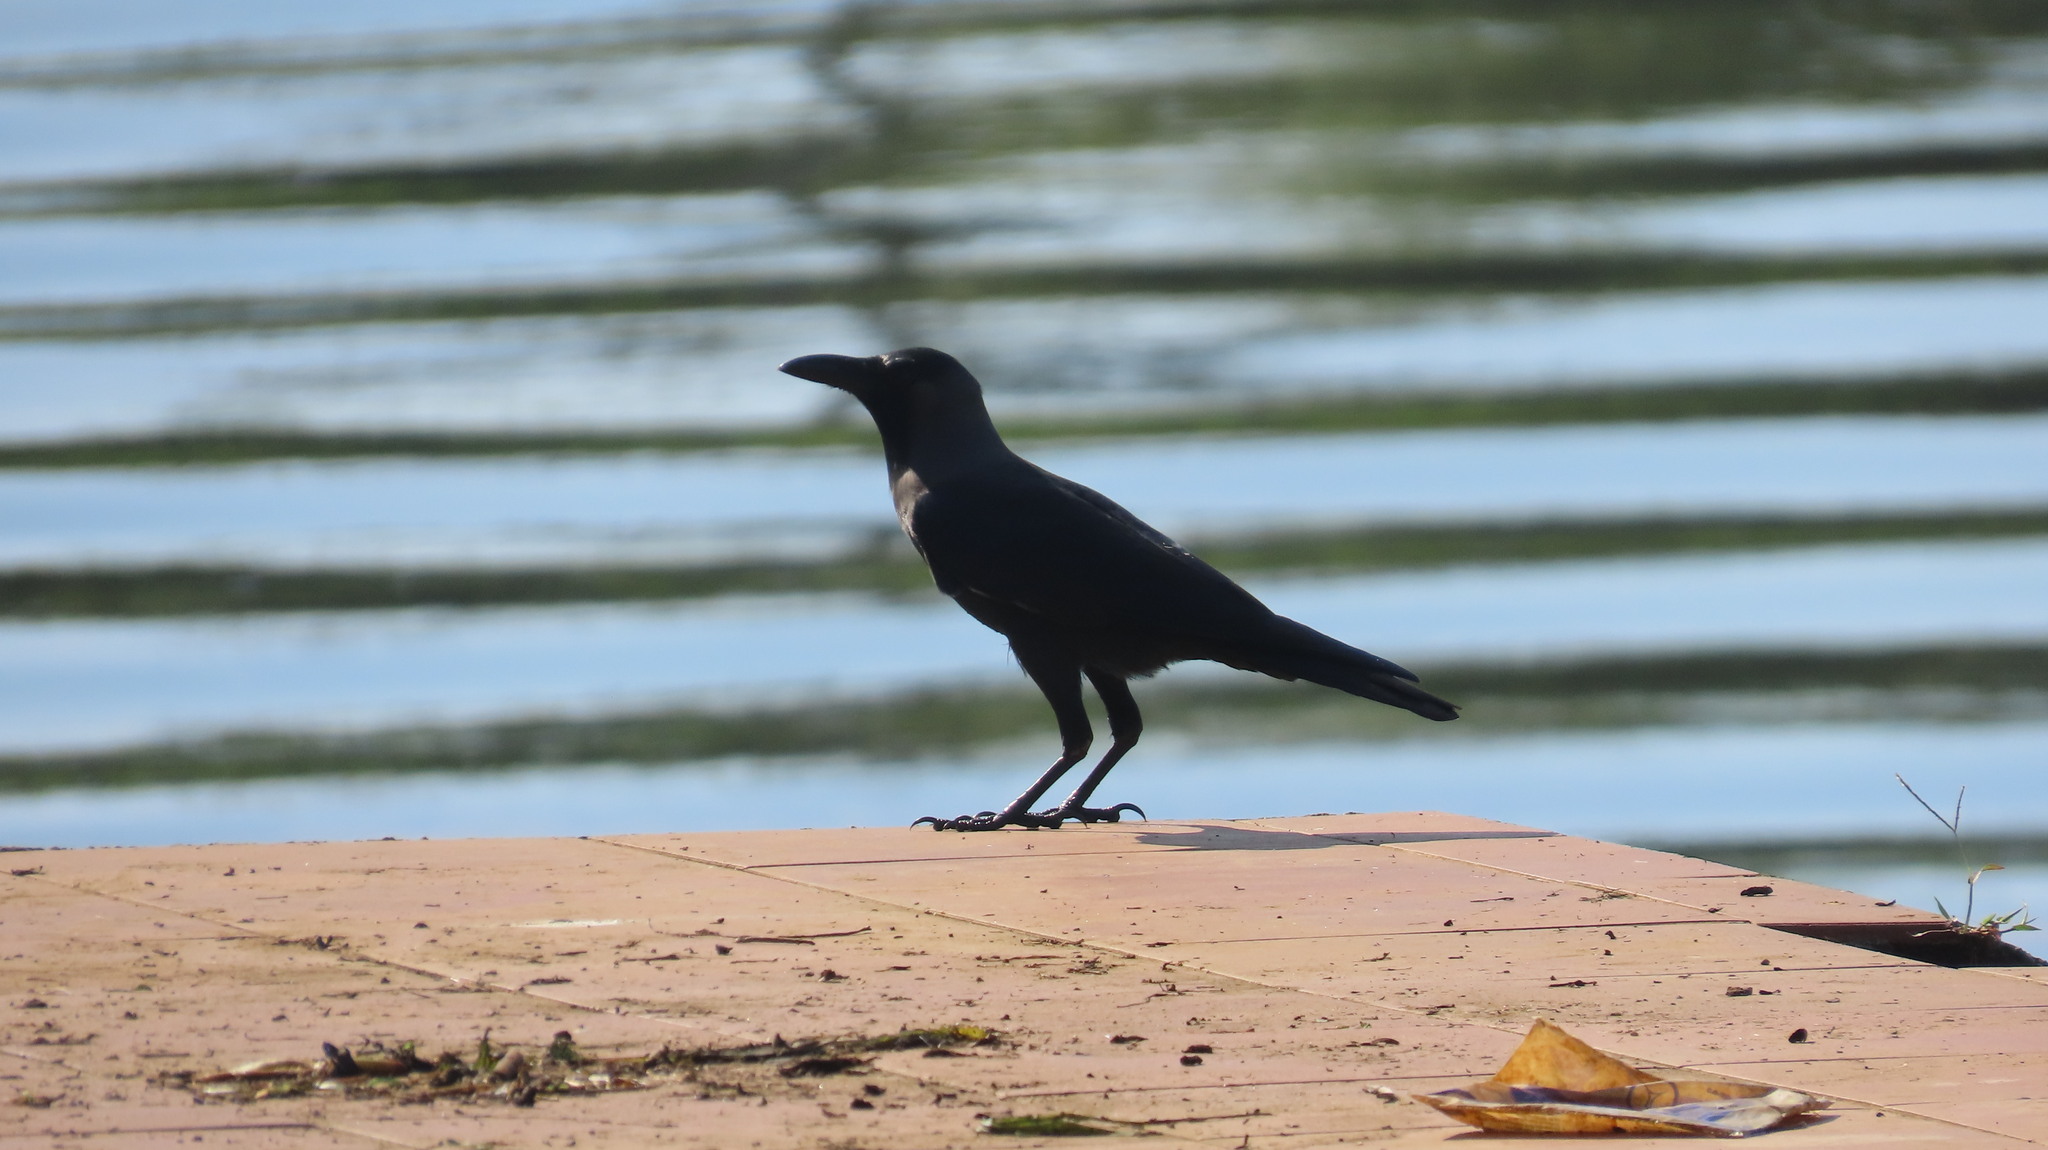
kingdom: Animalia
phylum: Chordata
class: Aves
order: Passeriformes
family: Corvidae
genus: Corvus
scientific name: Corvus splendens
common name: House crow
